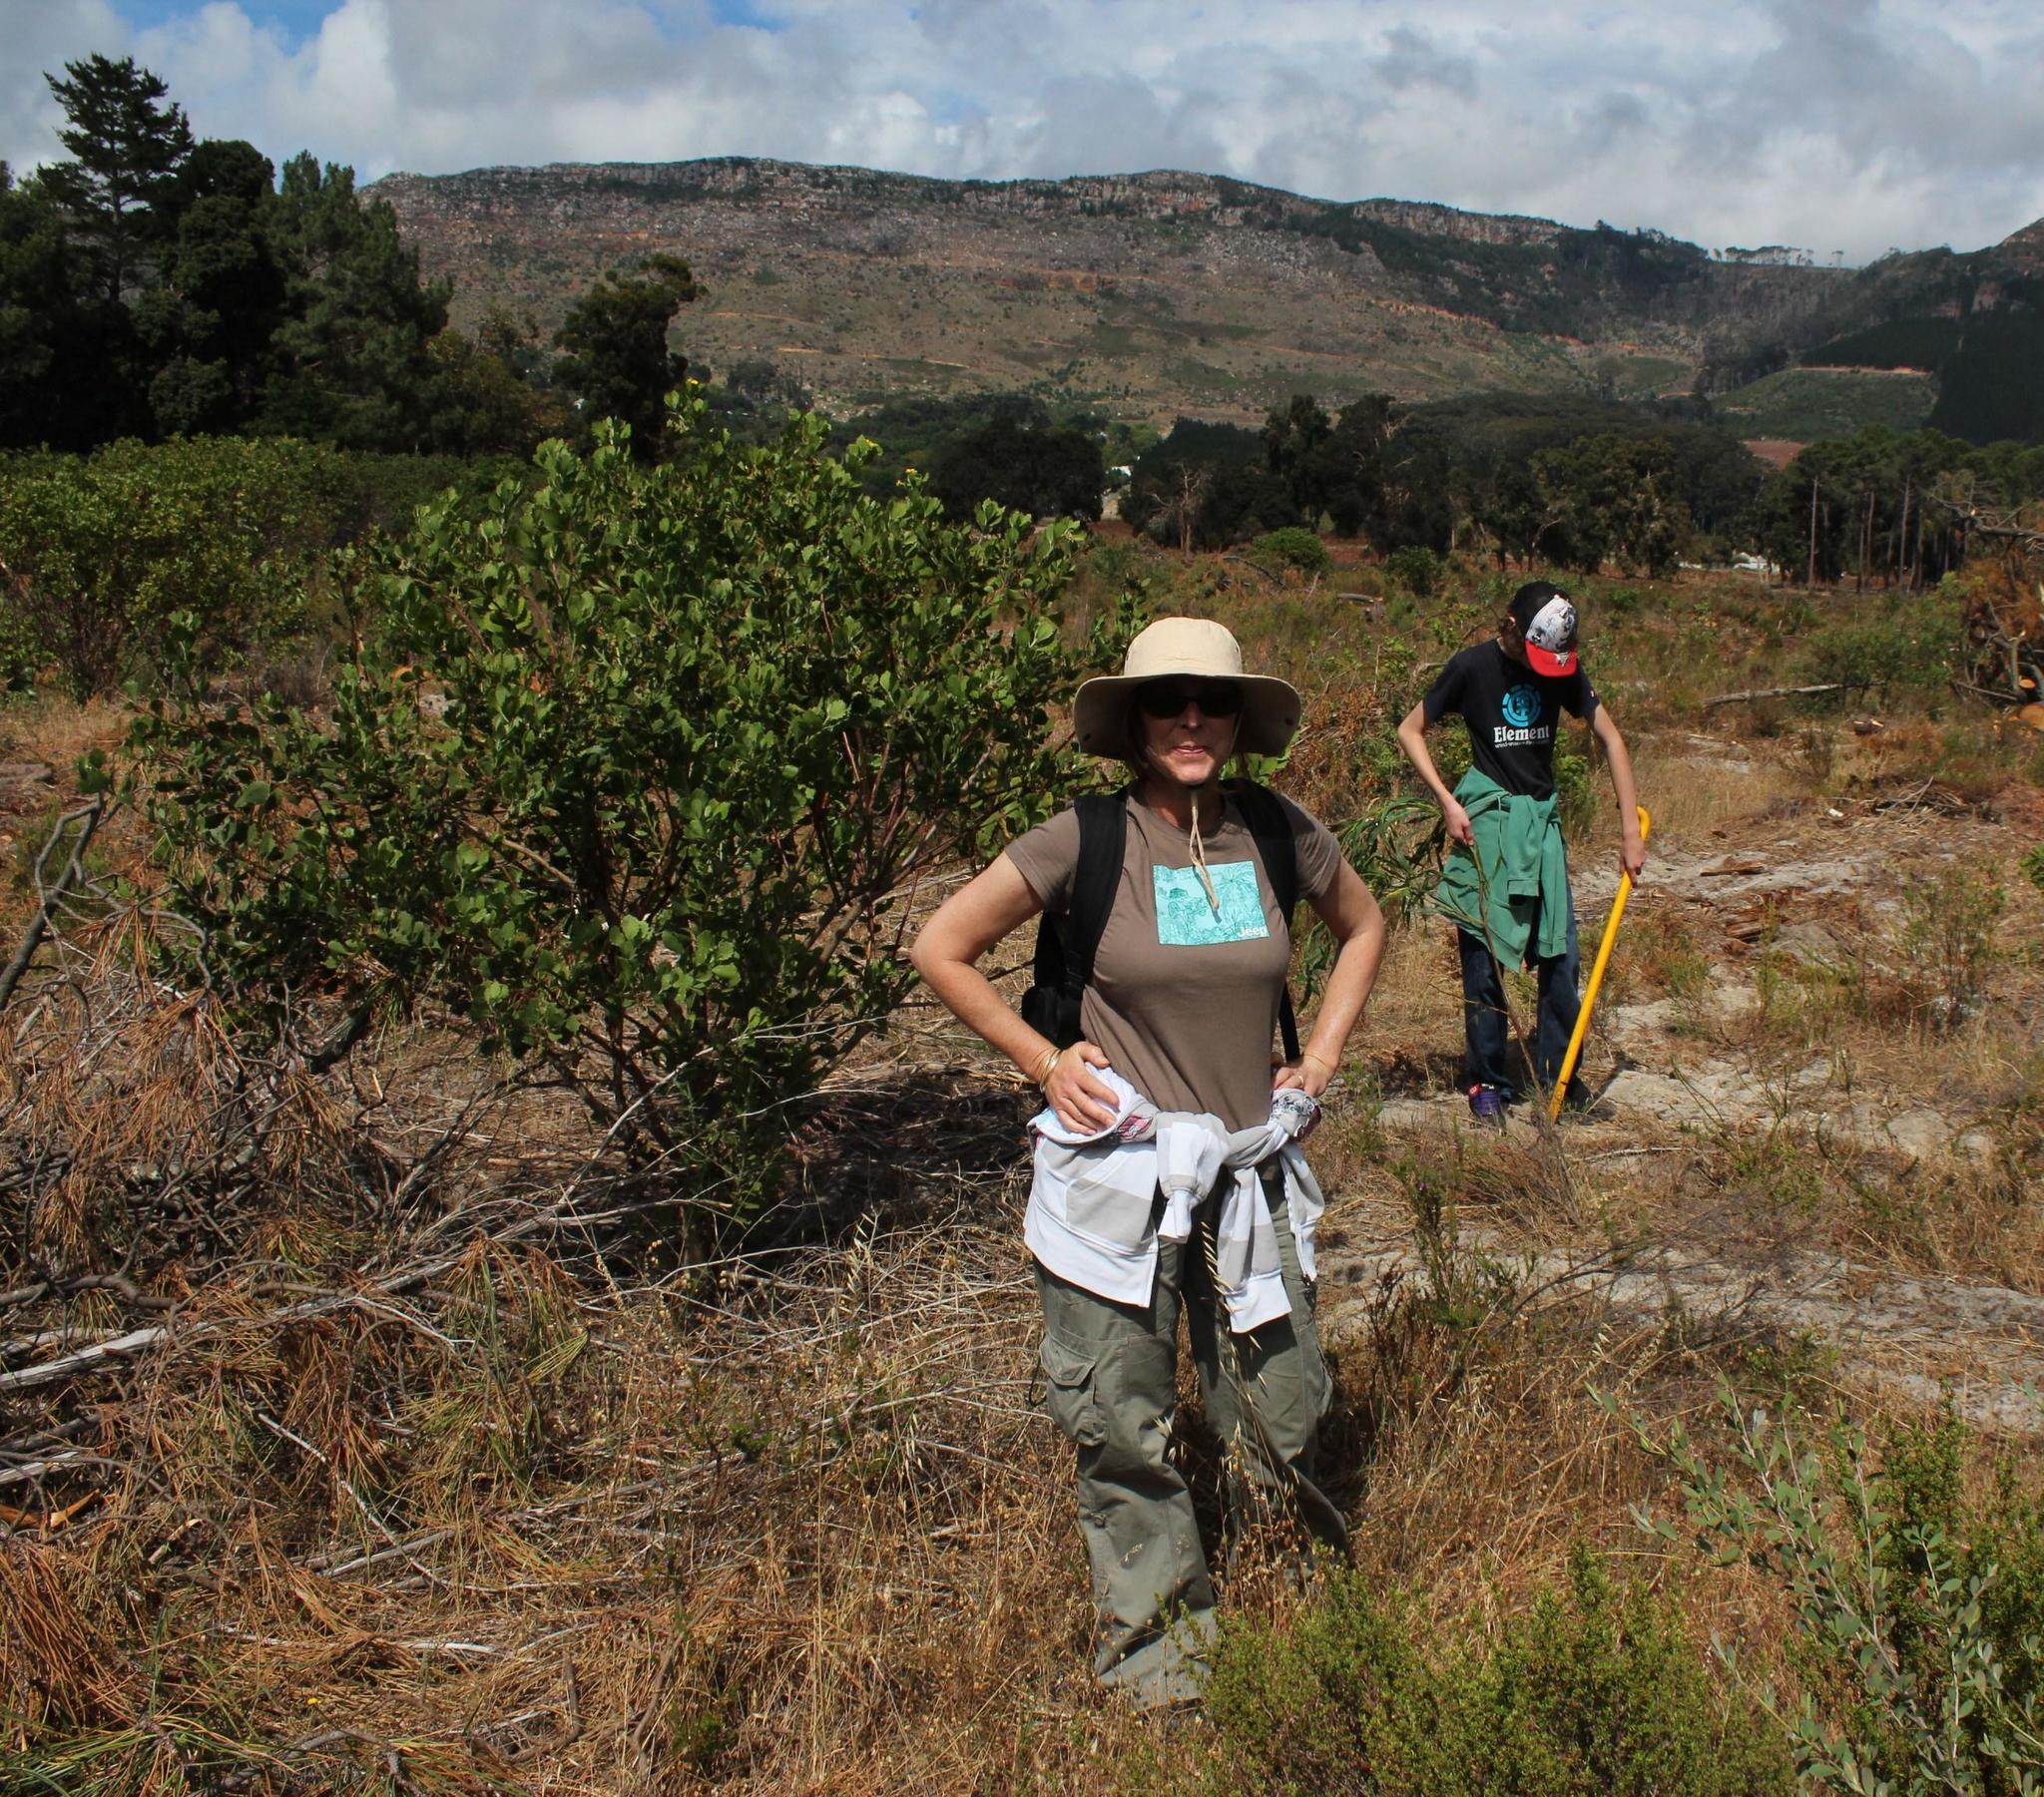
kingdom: Plantae
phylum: Tracheophyta
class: Magnoliopsida
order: Asterales
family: Asteraceae
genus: Osteospermum
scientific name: Osteospermum moniliferum
